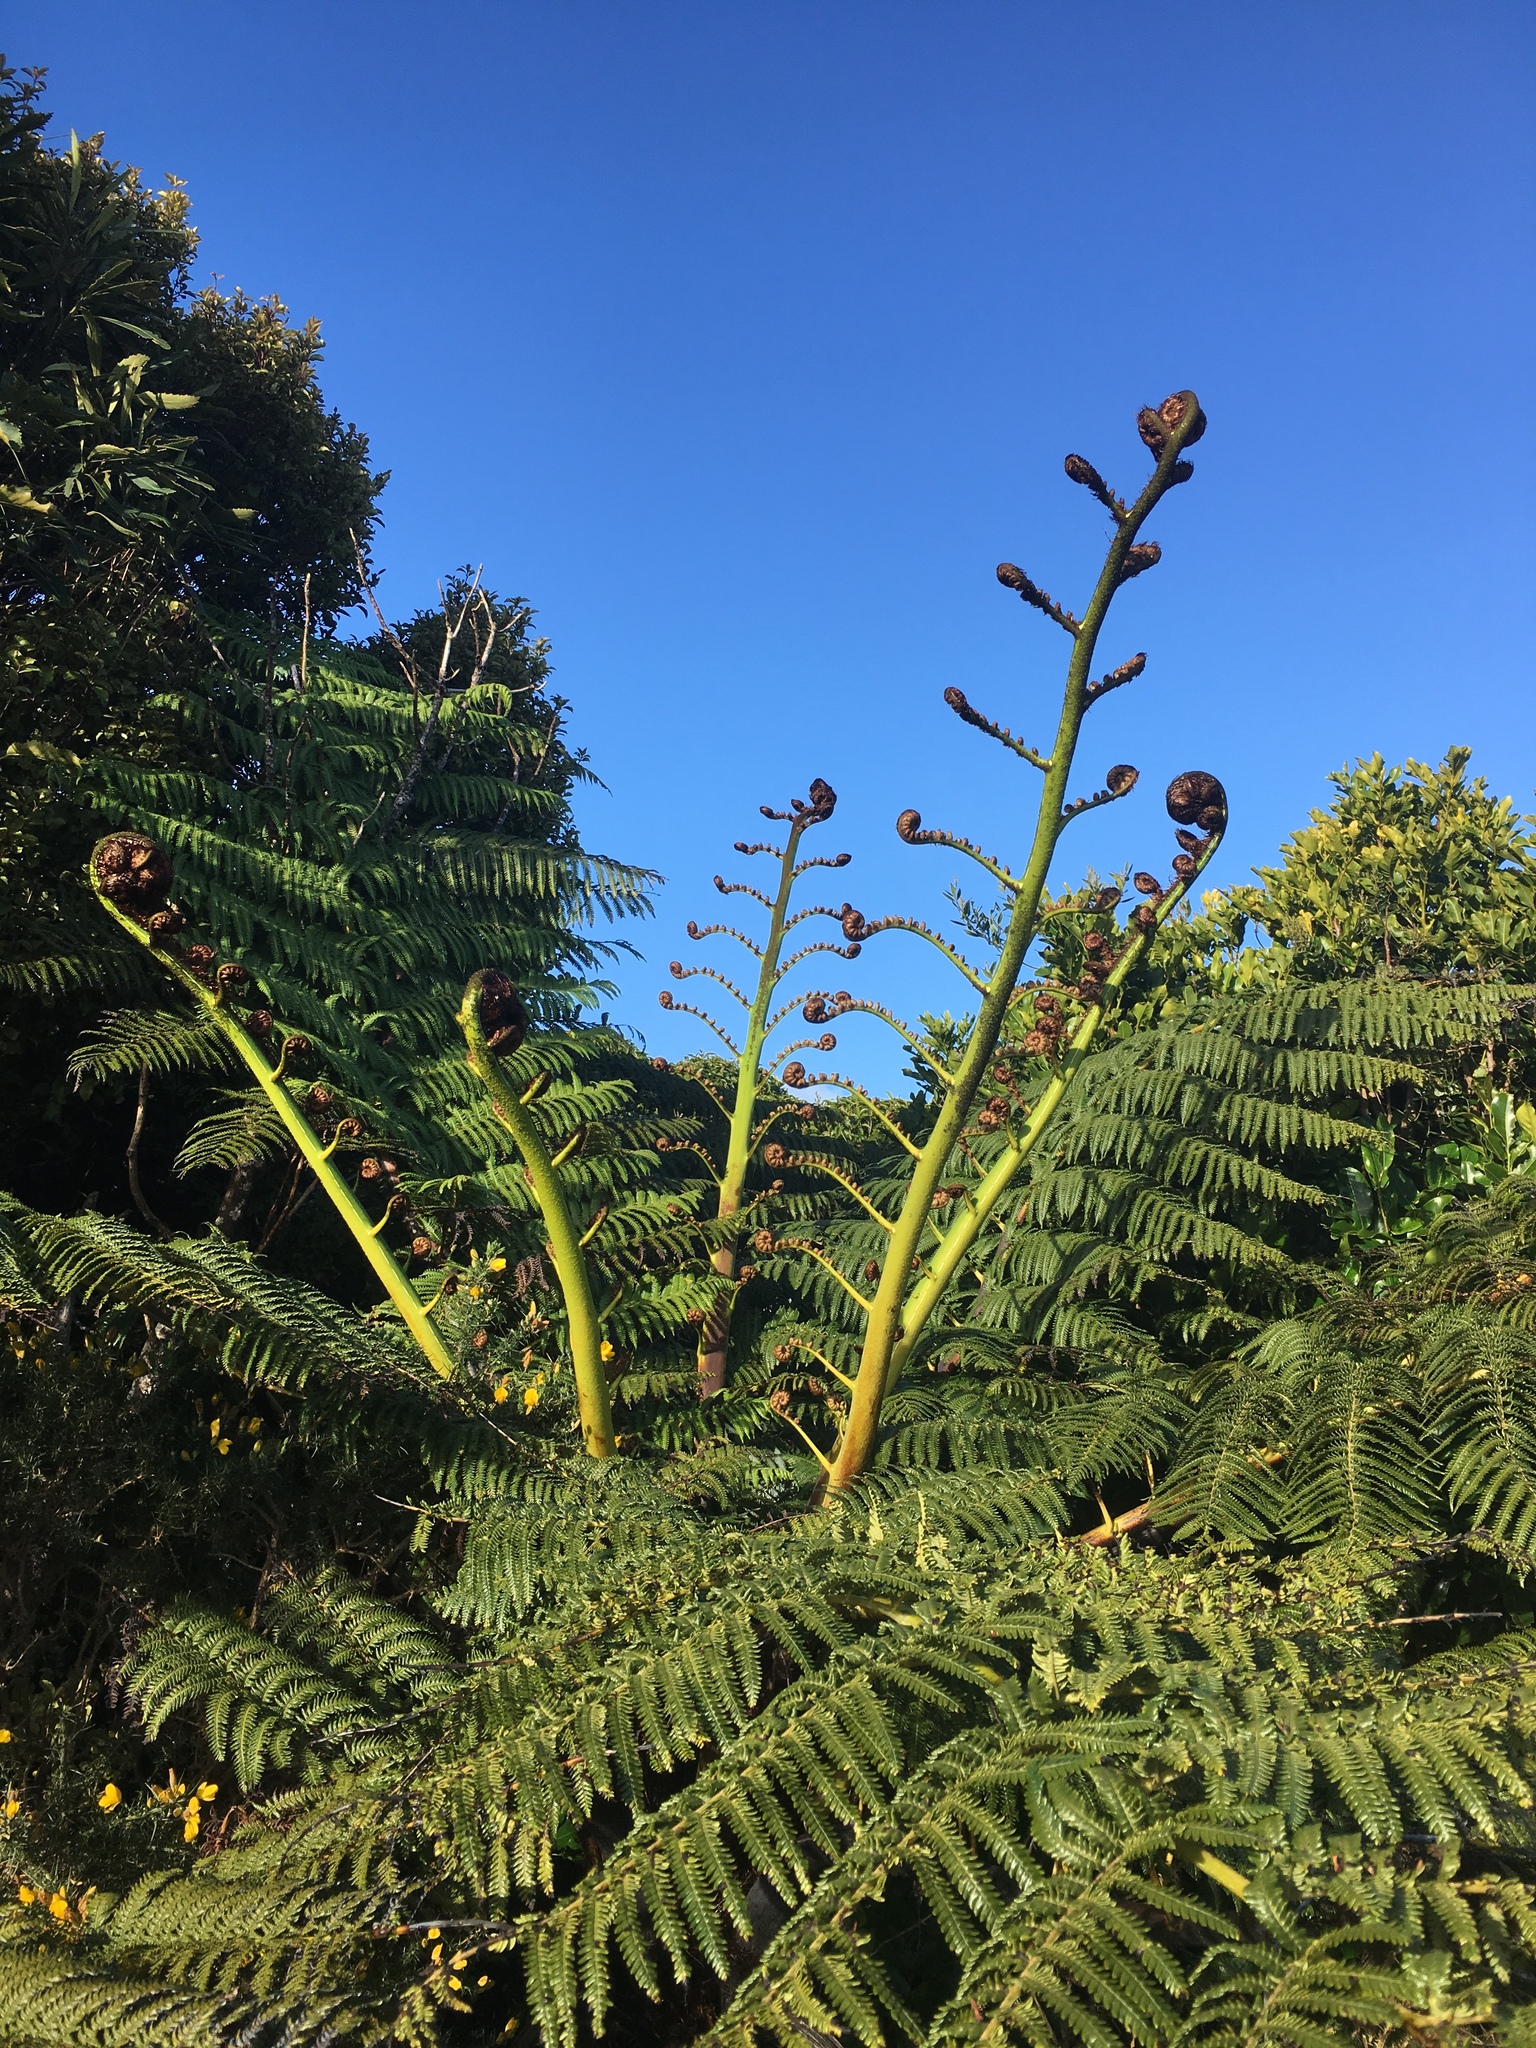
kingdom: Plantae
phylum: Tracheophyta
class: Polypodiopsida
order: Cyatheales
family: Cyatheaceae
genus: Sphaeropteris
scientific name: Sphaeropteris medullaris
